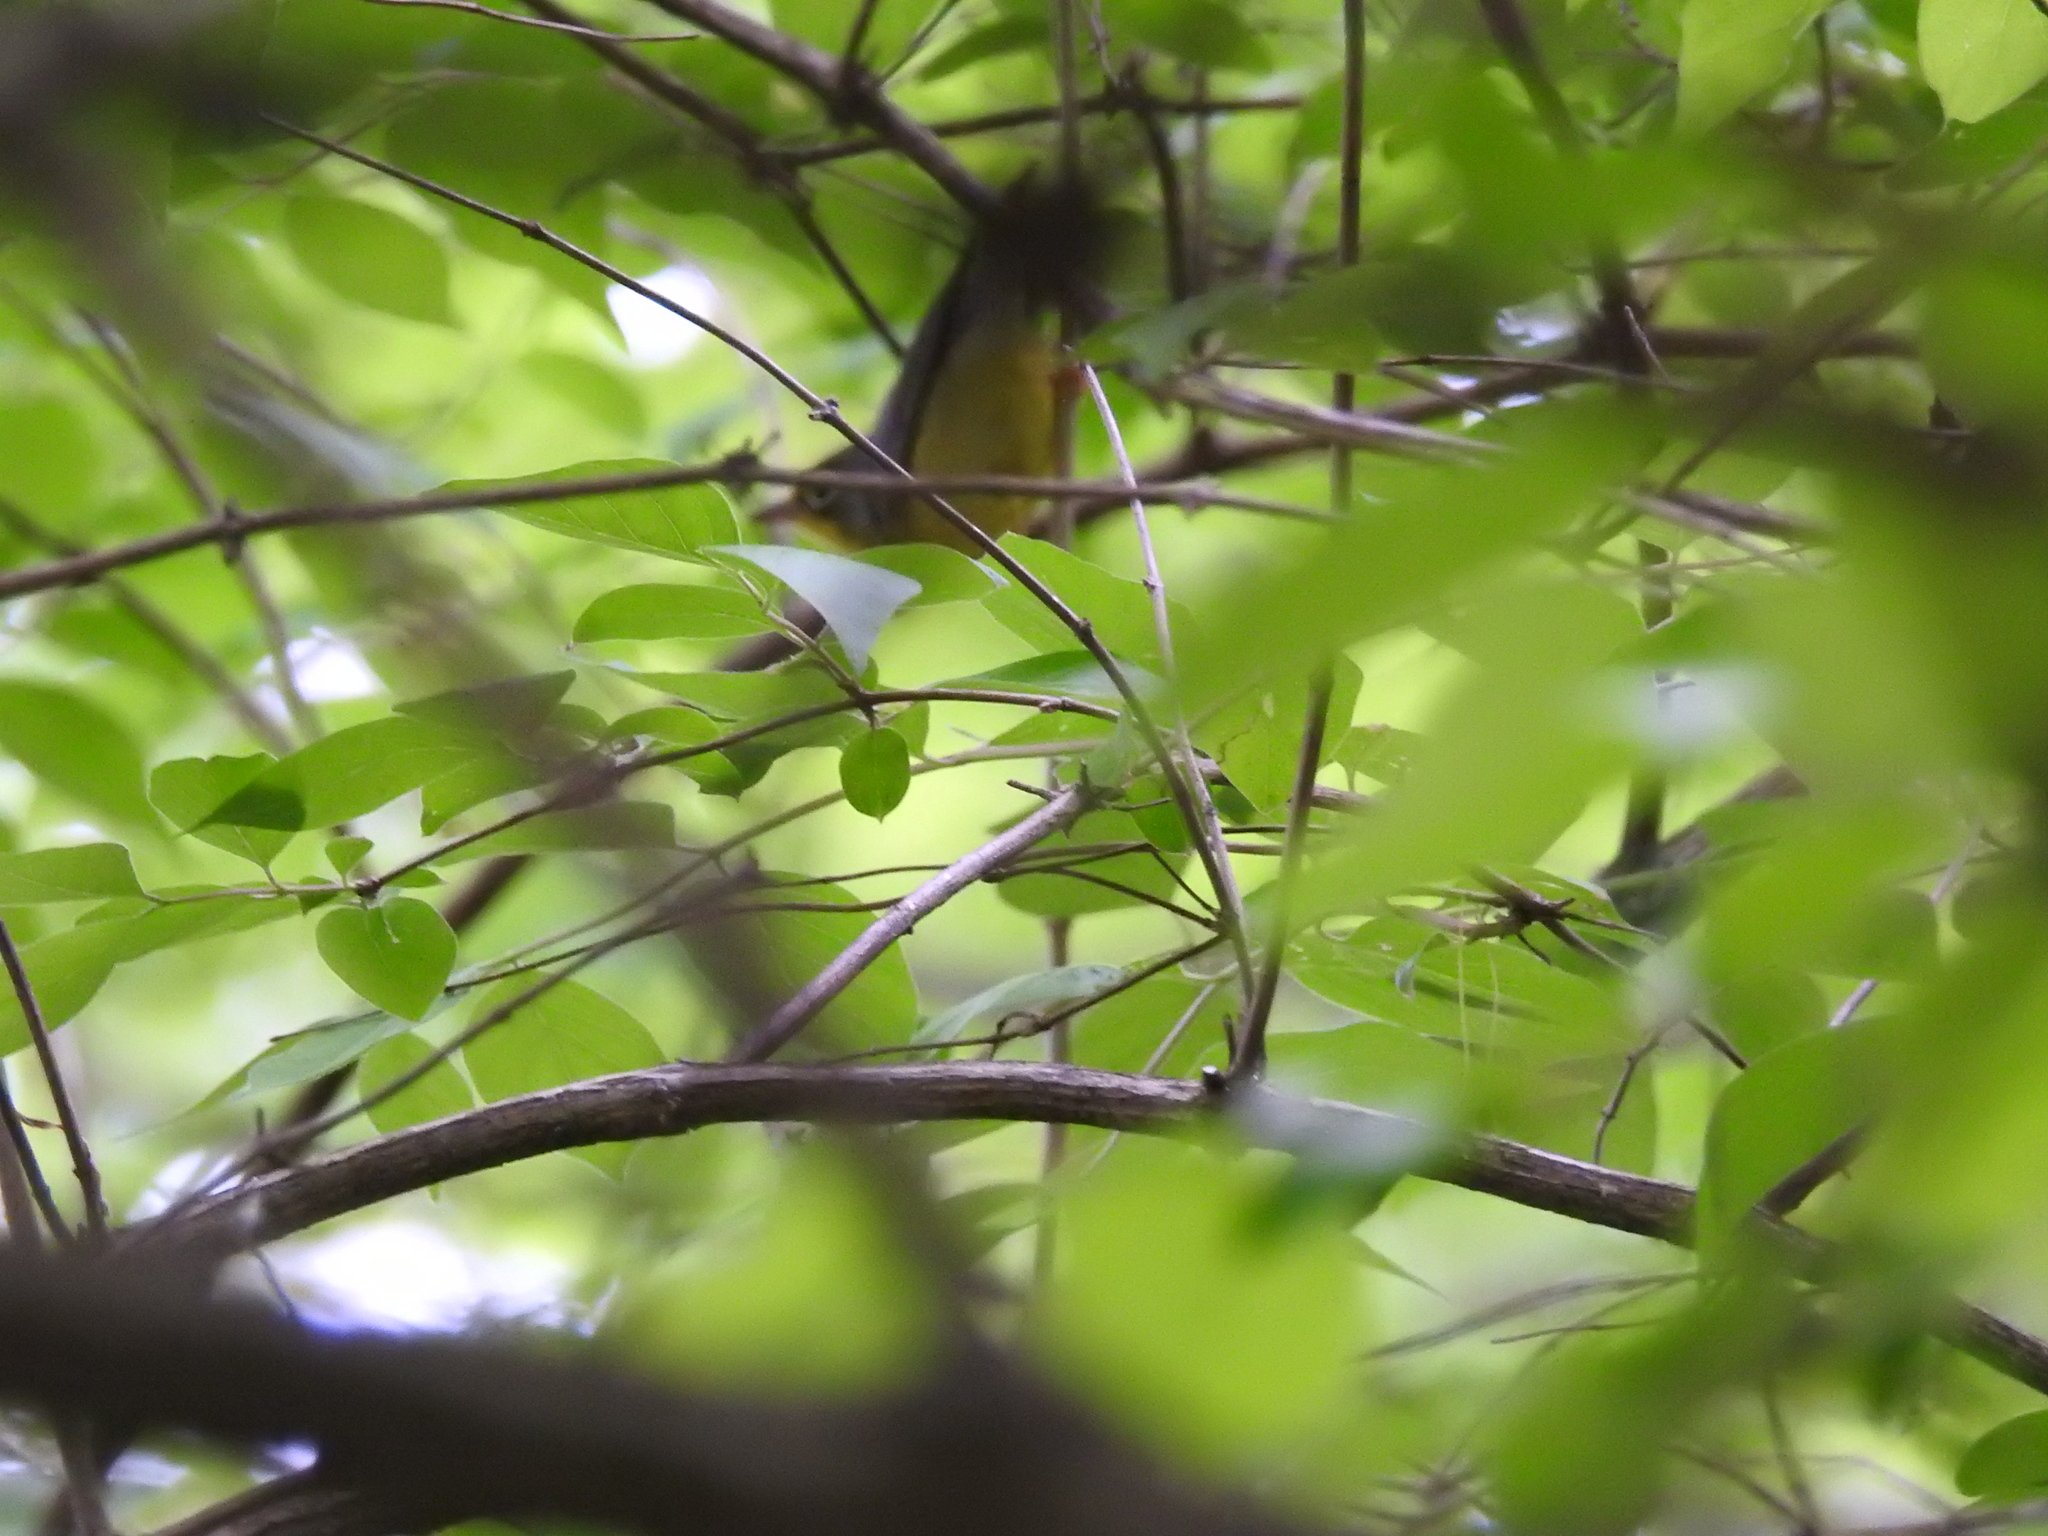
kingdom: Animalia
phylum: Chordata
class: Aves
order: Passeriformes
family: Parulidae
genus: Cardellina
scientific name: Cardellina canadensis
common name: Canada warbler
